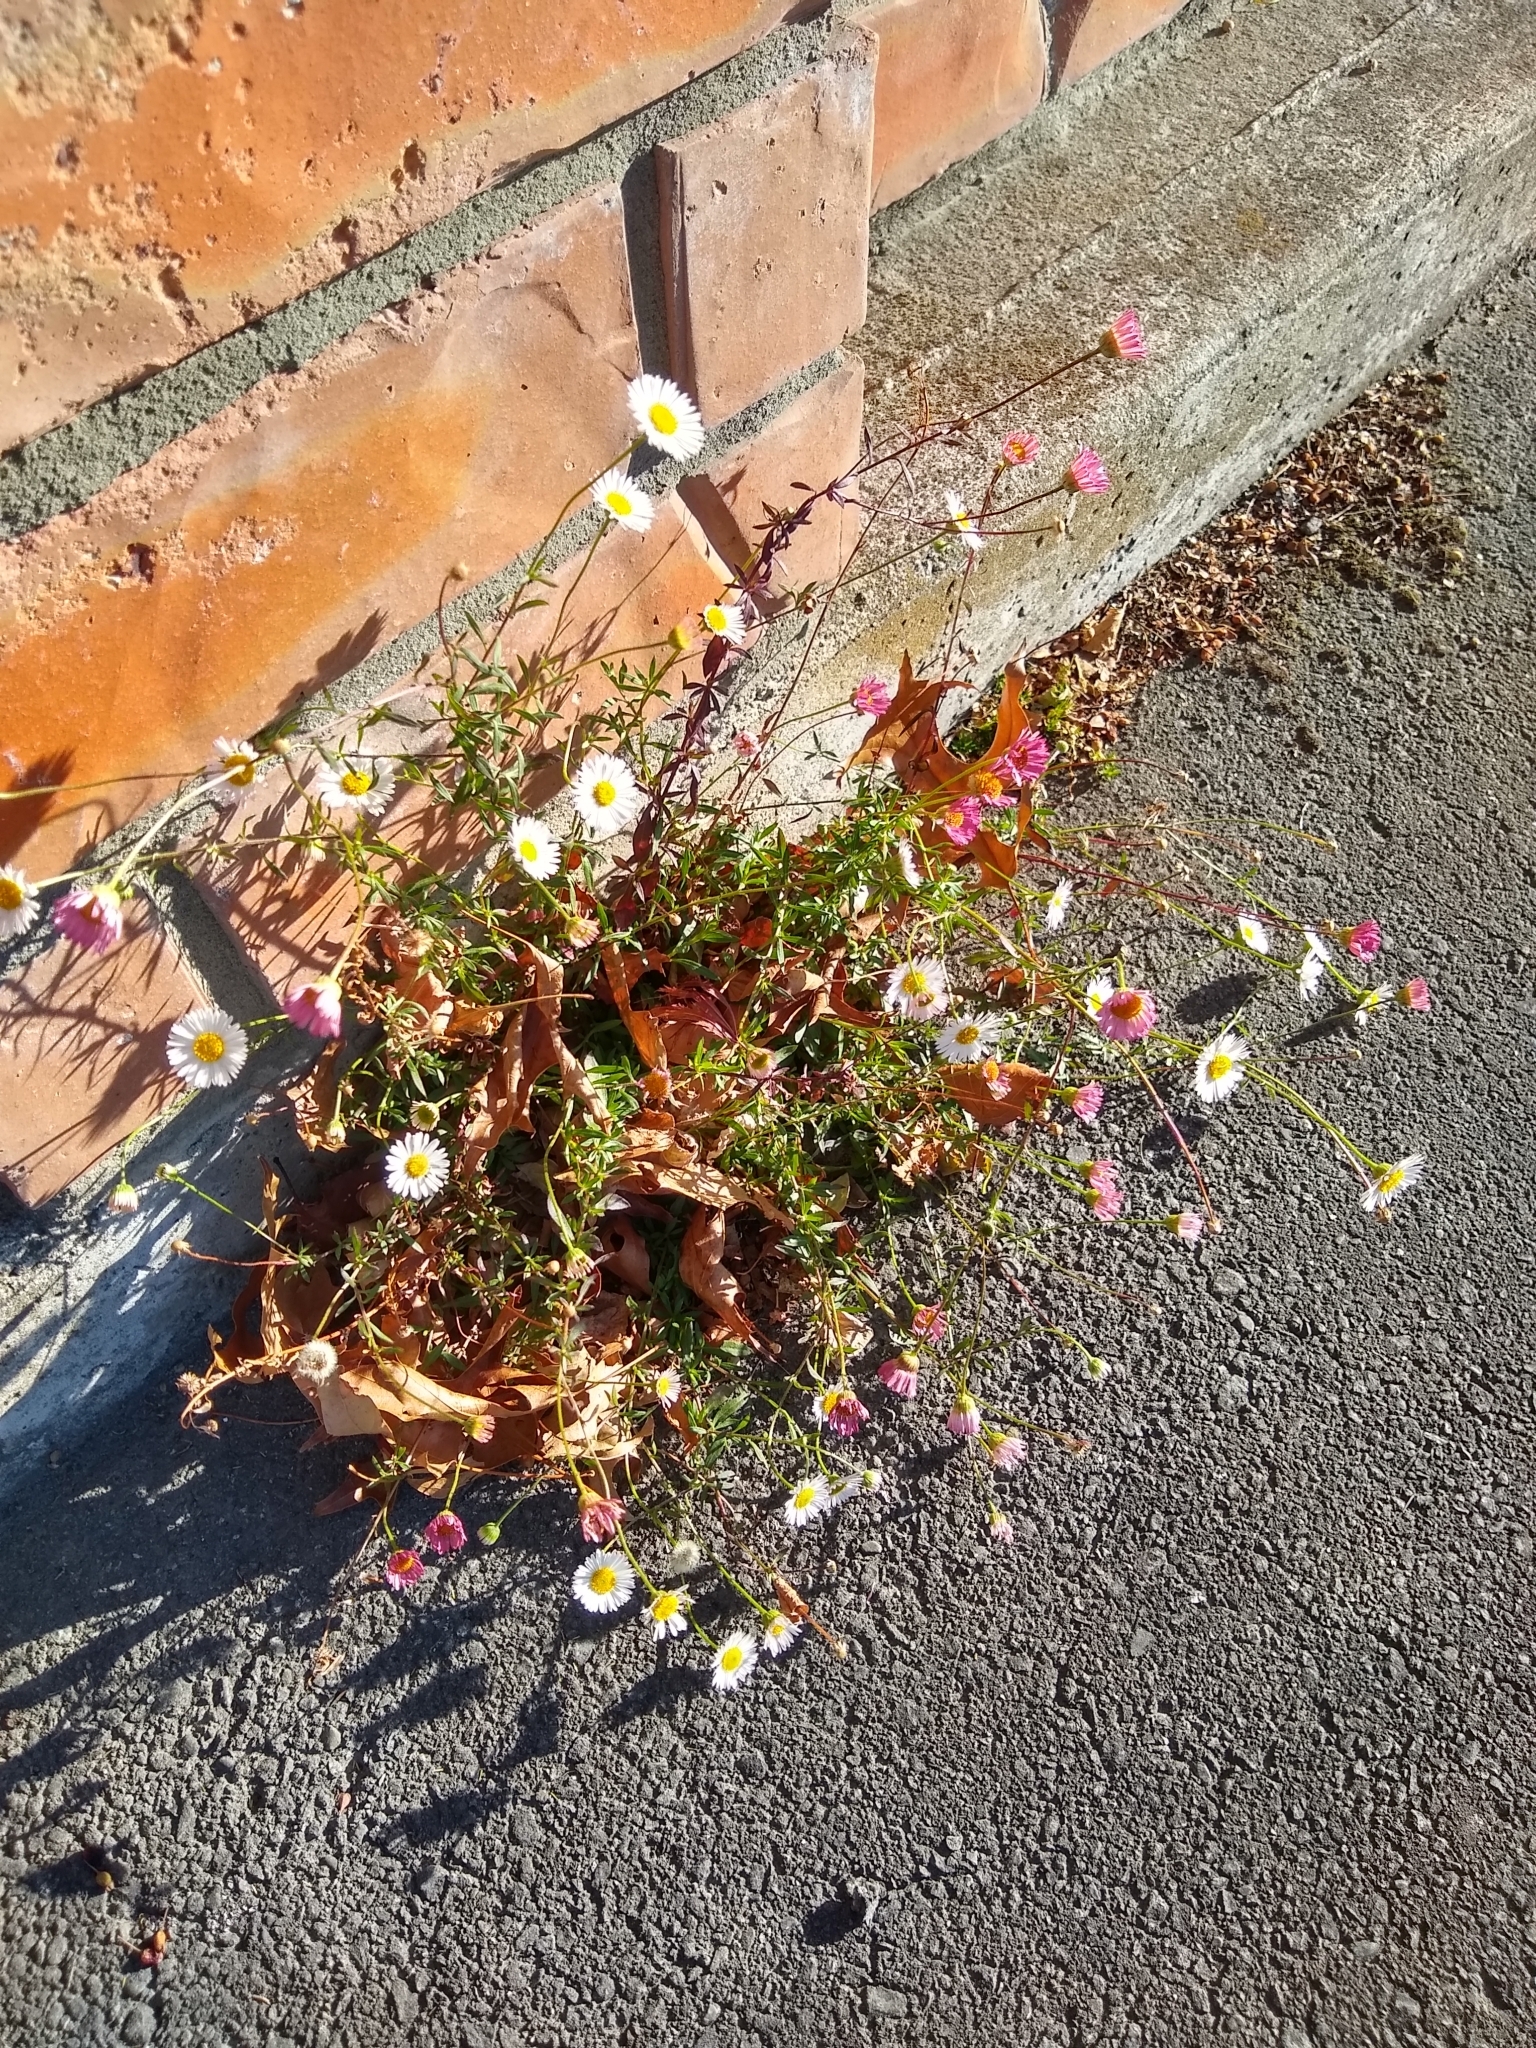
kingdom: Plantae
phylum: Tracheophyta
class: Magnoliopsida
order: Asterales
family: Asteraceae
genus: Erigeron
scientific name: Erigeron karvinskianus
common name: Mexican fleabane
